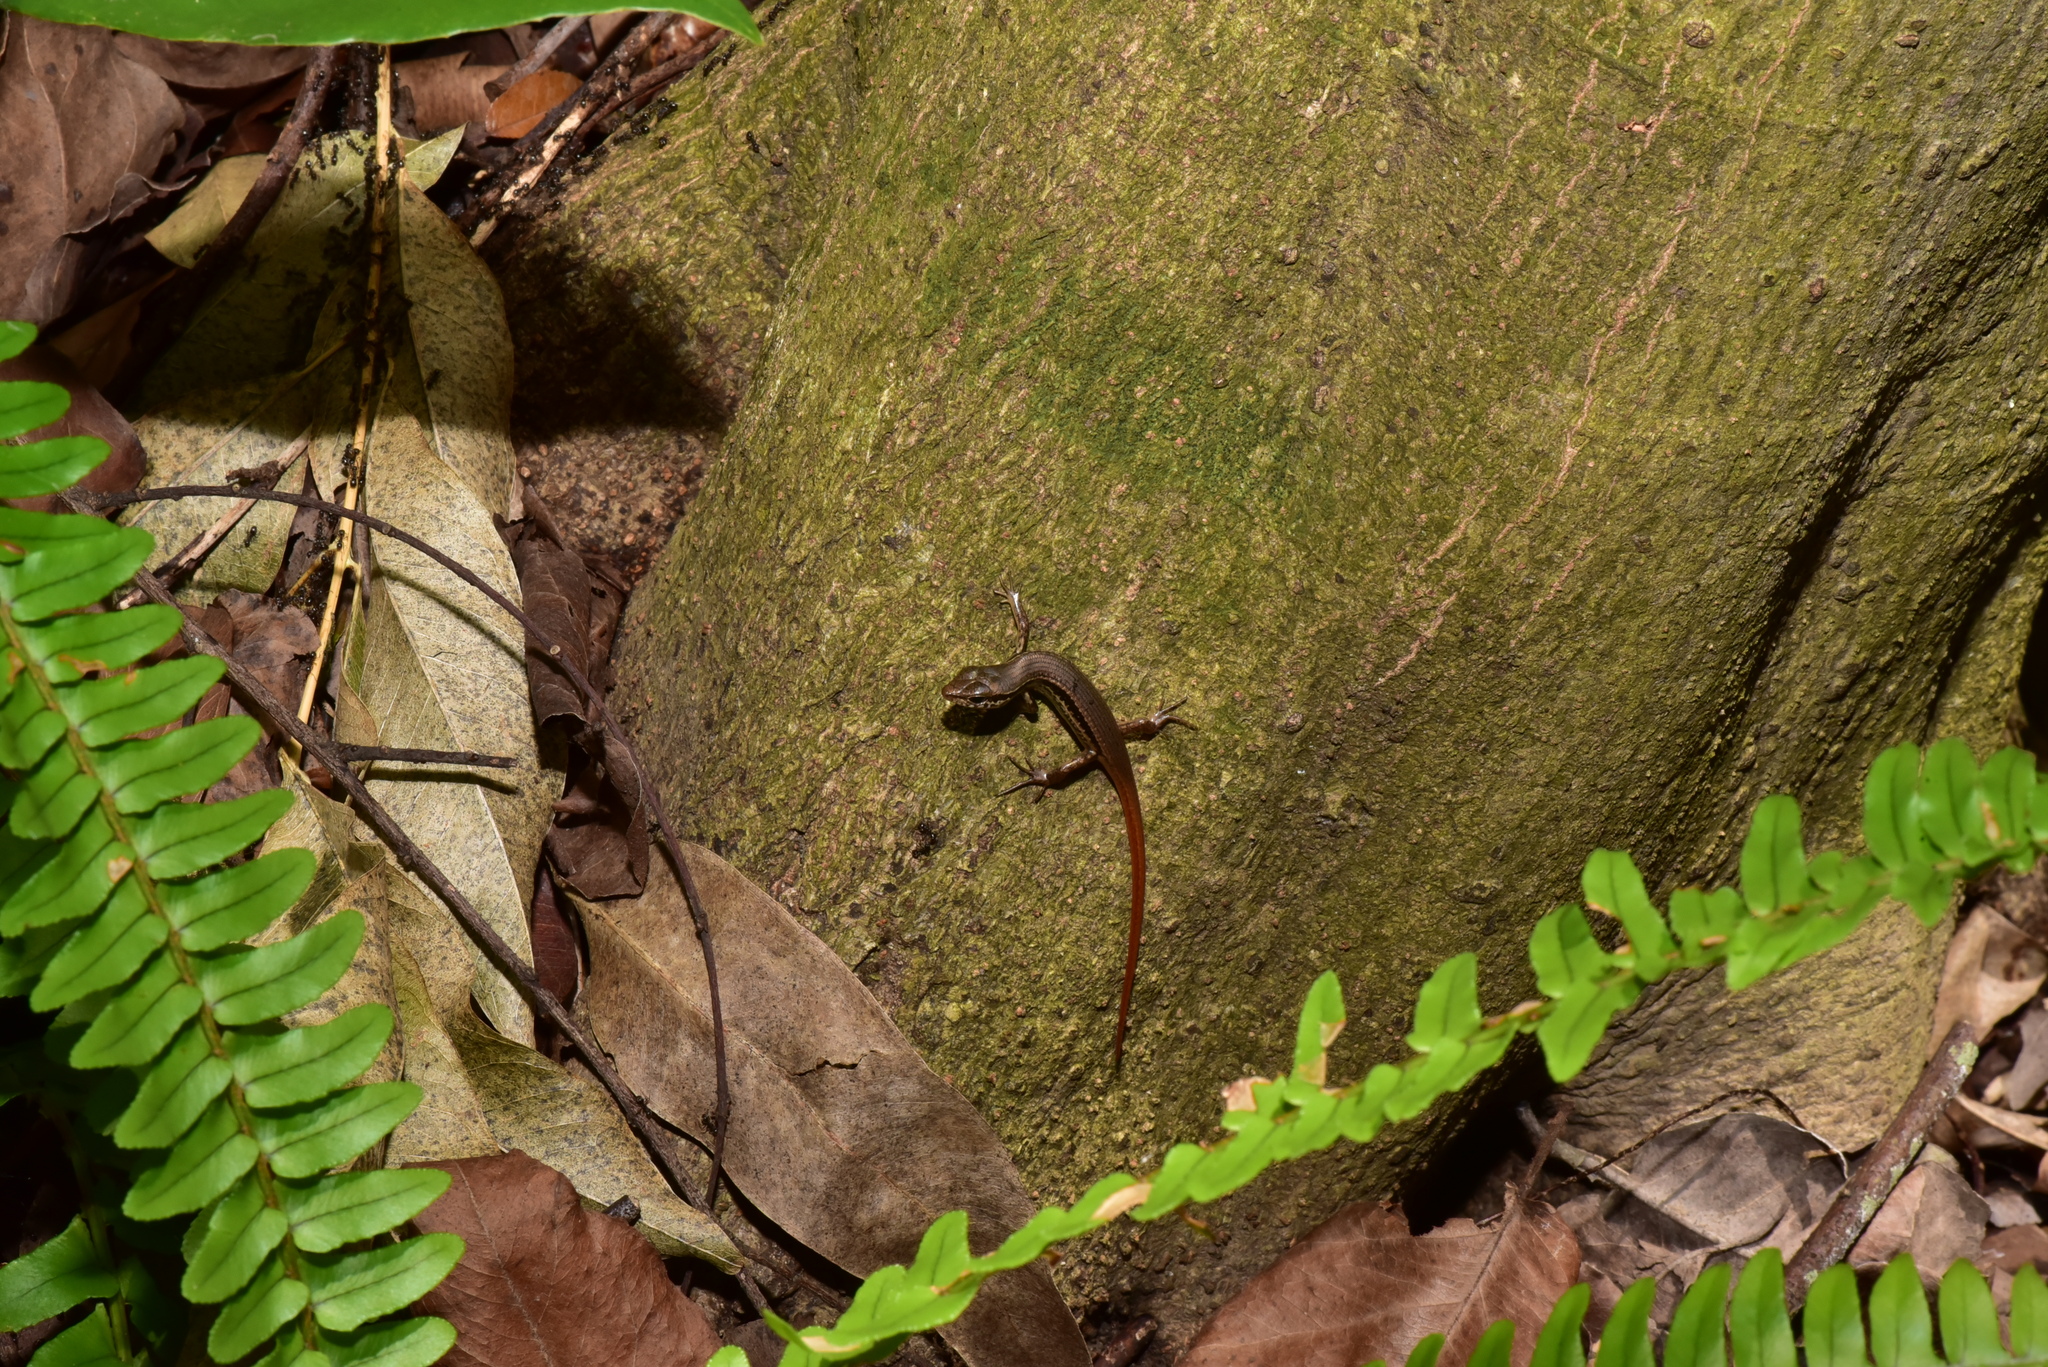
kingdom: Animalia
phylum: Chordata
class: Squamata
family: Scincidae
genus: Sphenomorphus
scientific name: Sphenomorphus indicus
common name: Himalayan forest skink
